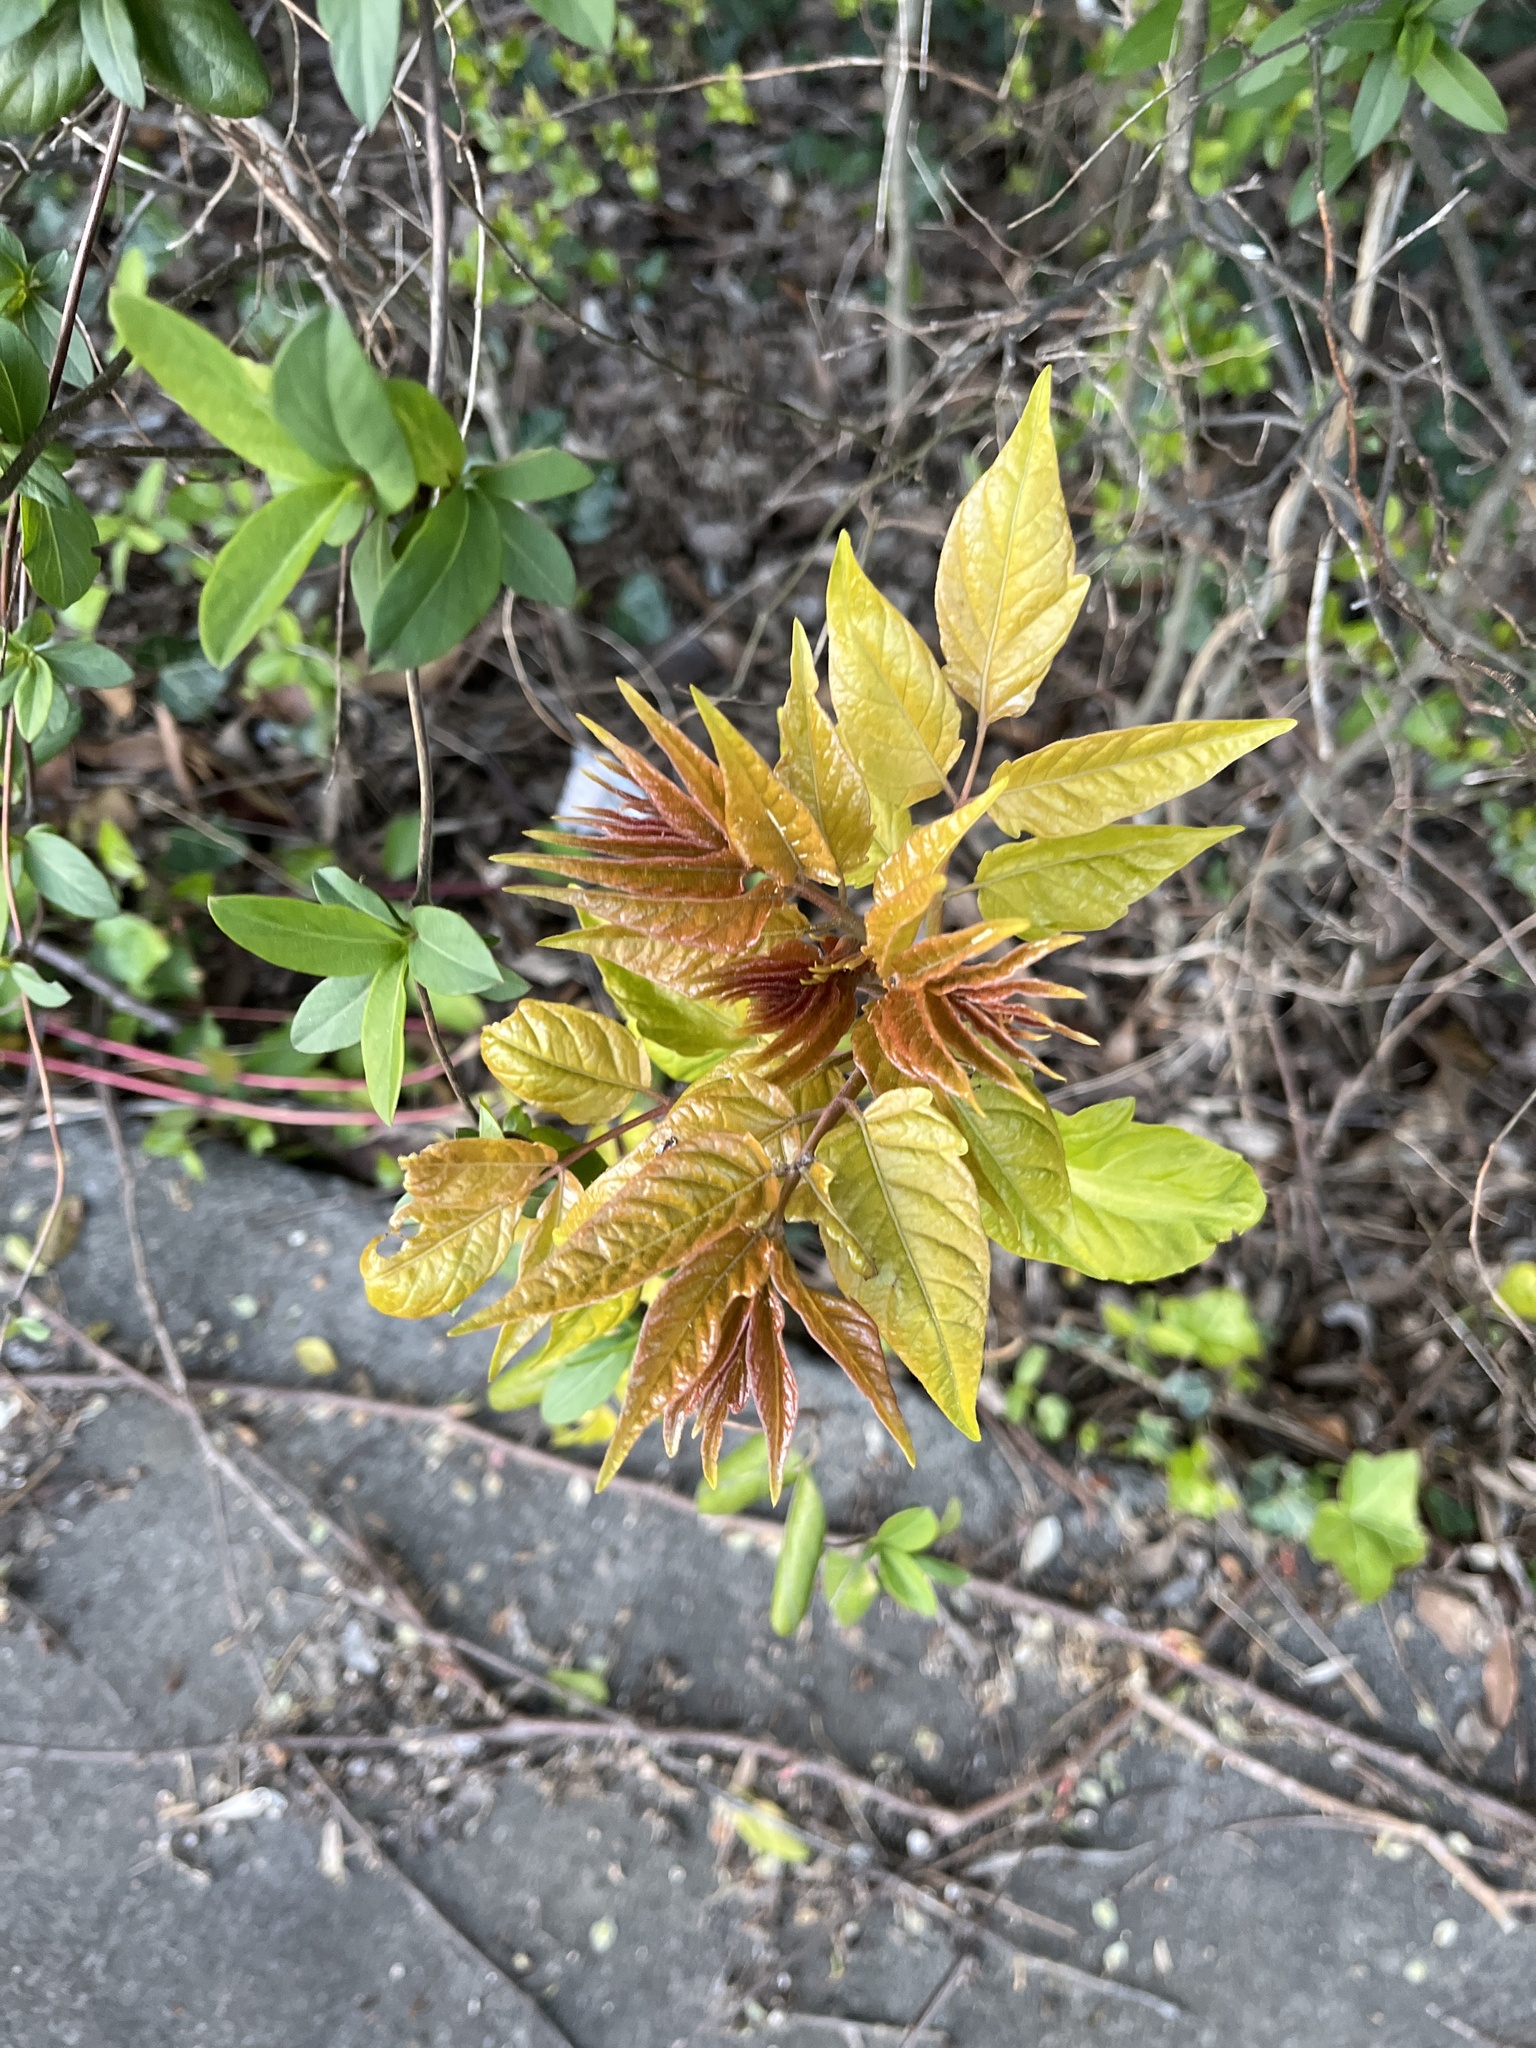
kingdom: Plantae
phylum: Tracheophyta
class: Magnoliopsida
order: Sapindales
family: Simaroubaceae
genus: Ailanthus
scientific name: Ailanthus altissima
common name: Tree-of-heaven
